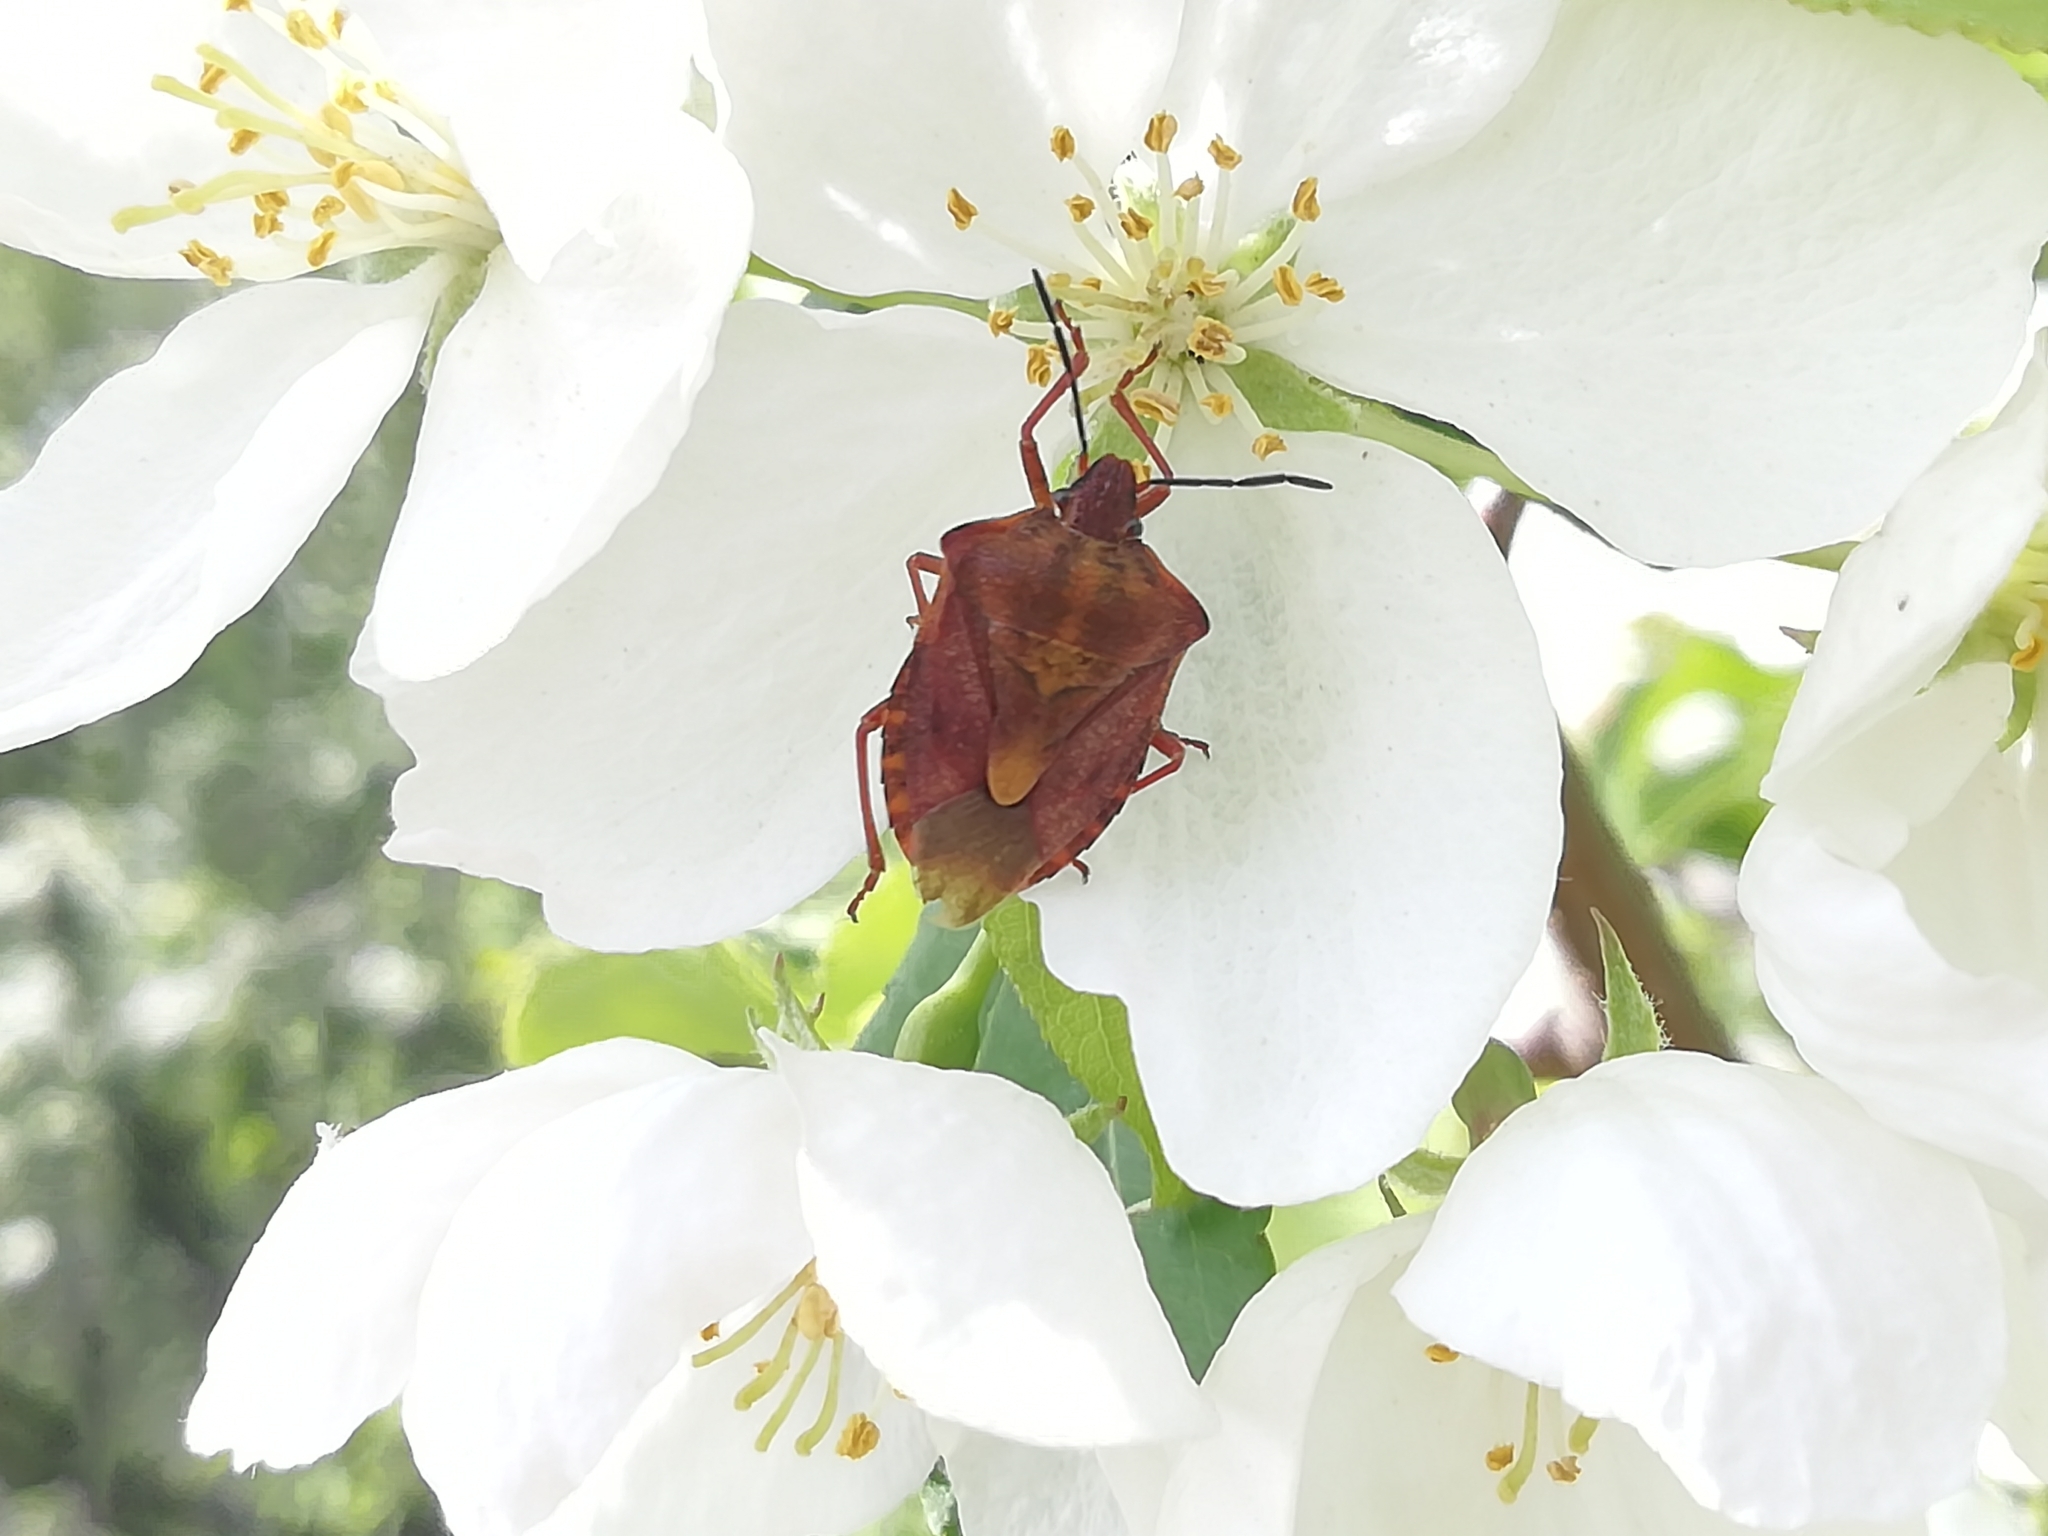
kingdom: Animalia
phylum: Arthropoda
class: Insecta
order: Hemiptera
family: Pentatomidae
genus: Carpocoris
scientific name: Carpocoris purpureipennis
